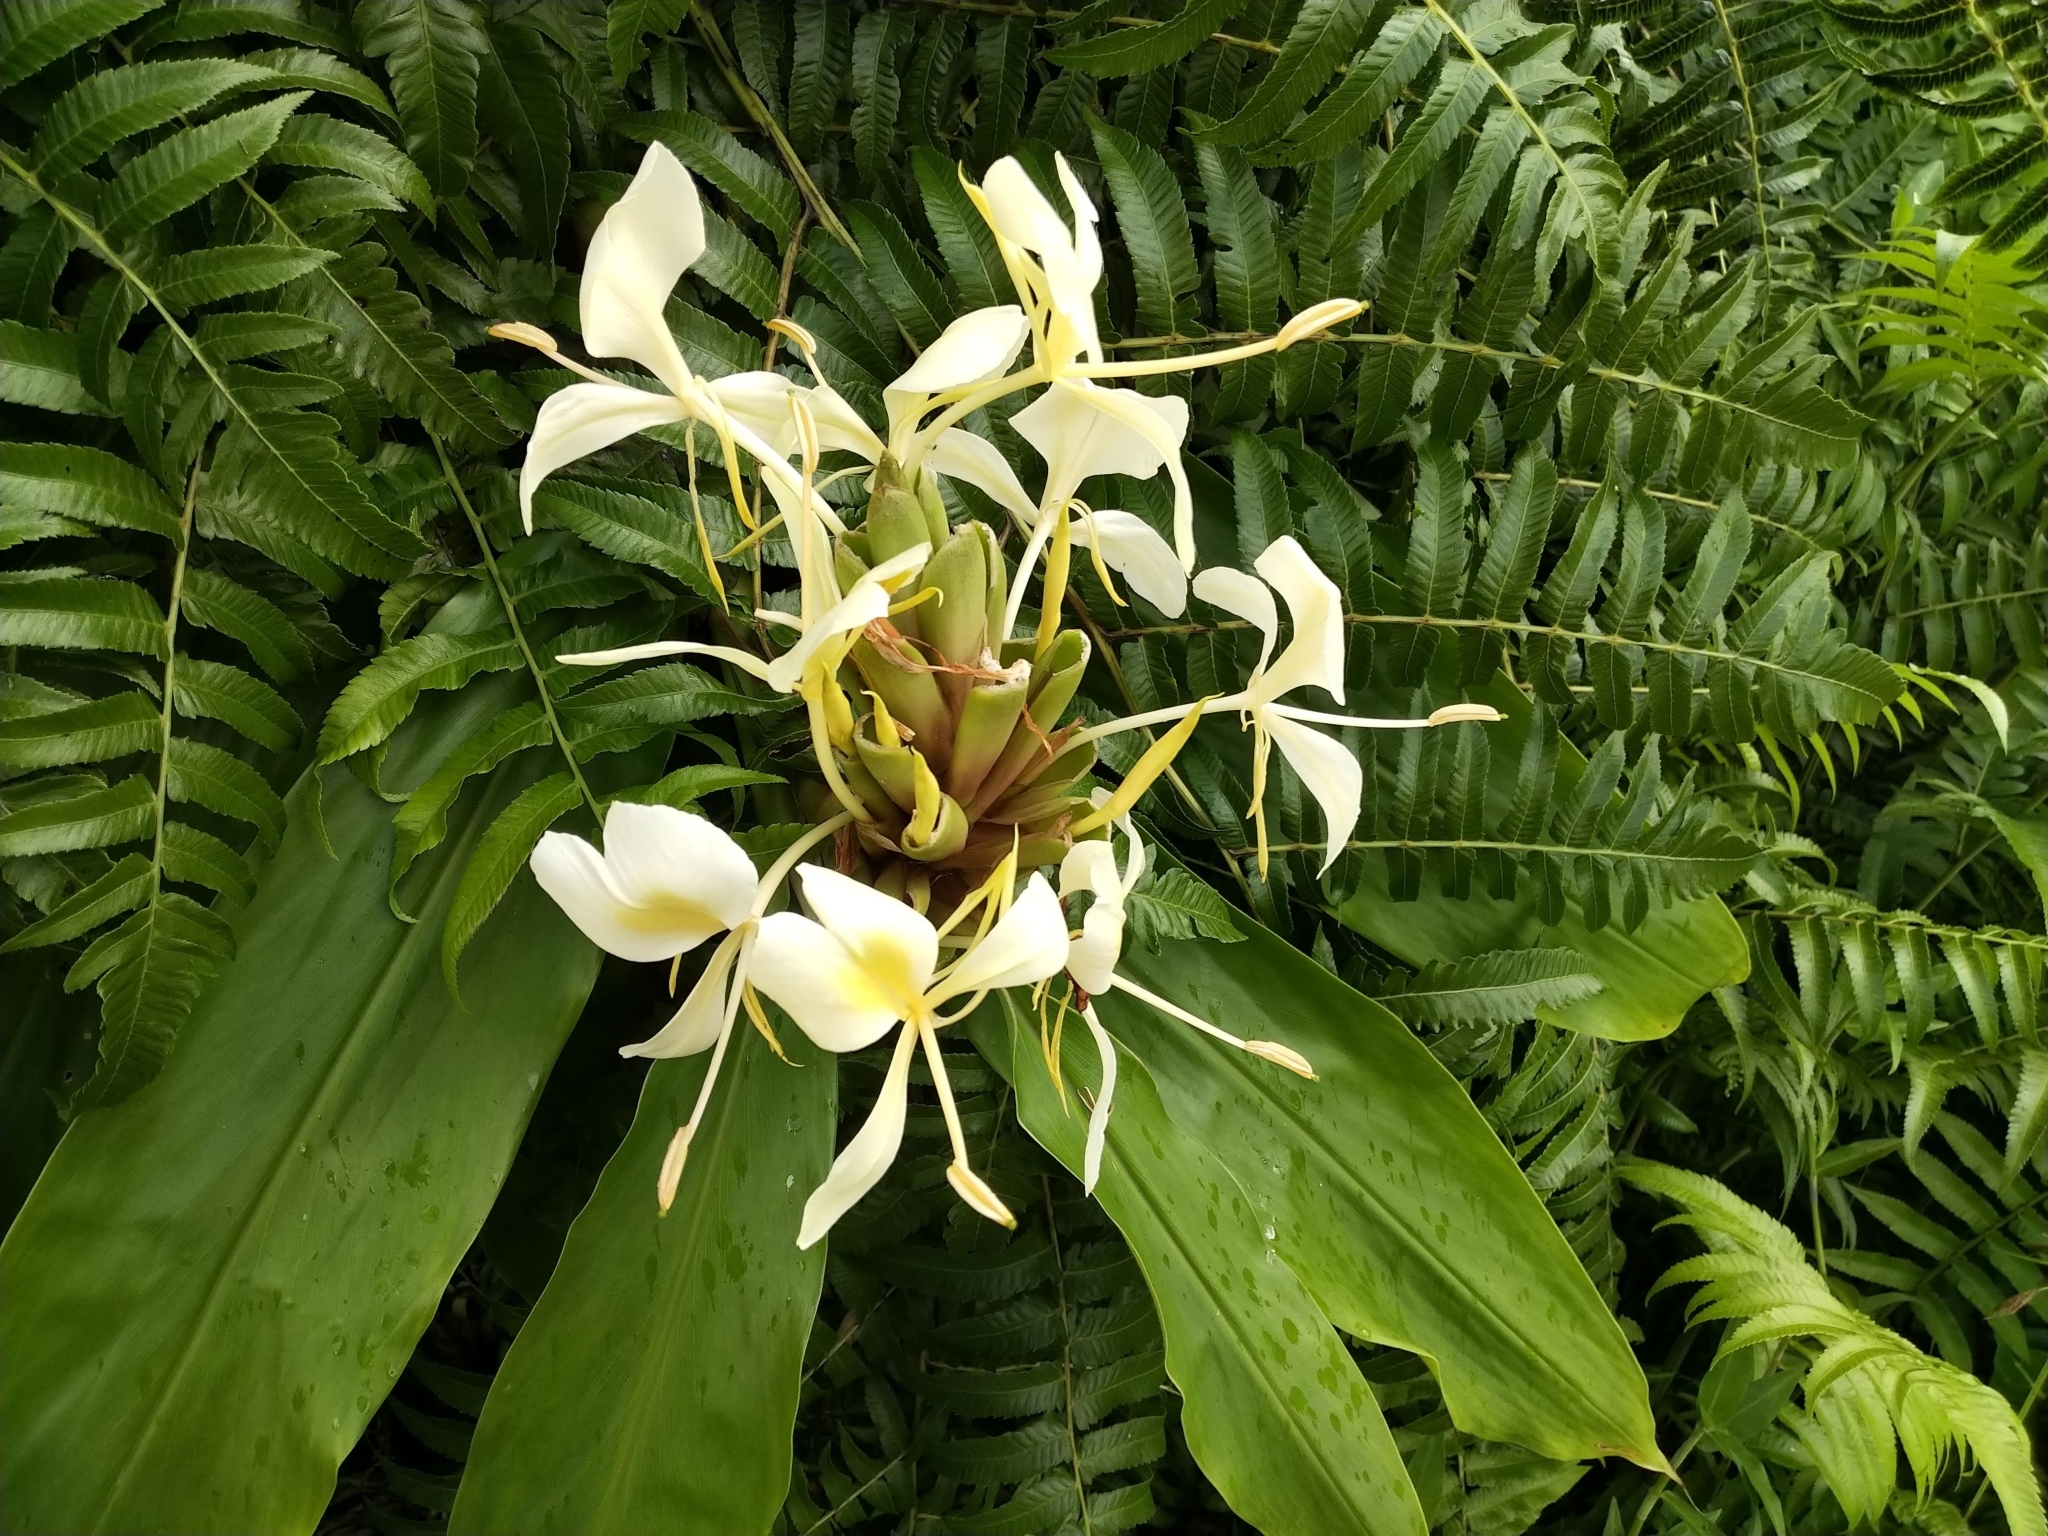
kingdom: Plantae
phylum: Tracheophyta
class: Liliopsida
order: Zingiberales
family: Zingiberaceae
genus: Hedychium
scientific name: Hedychium flavescens
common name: Yellow ginger
